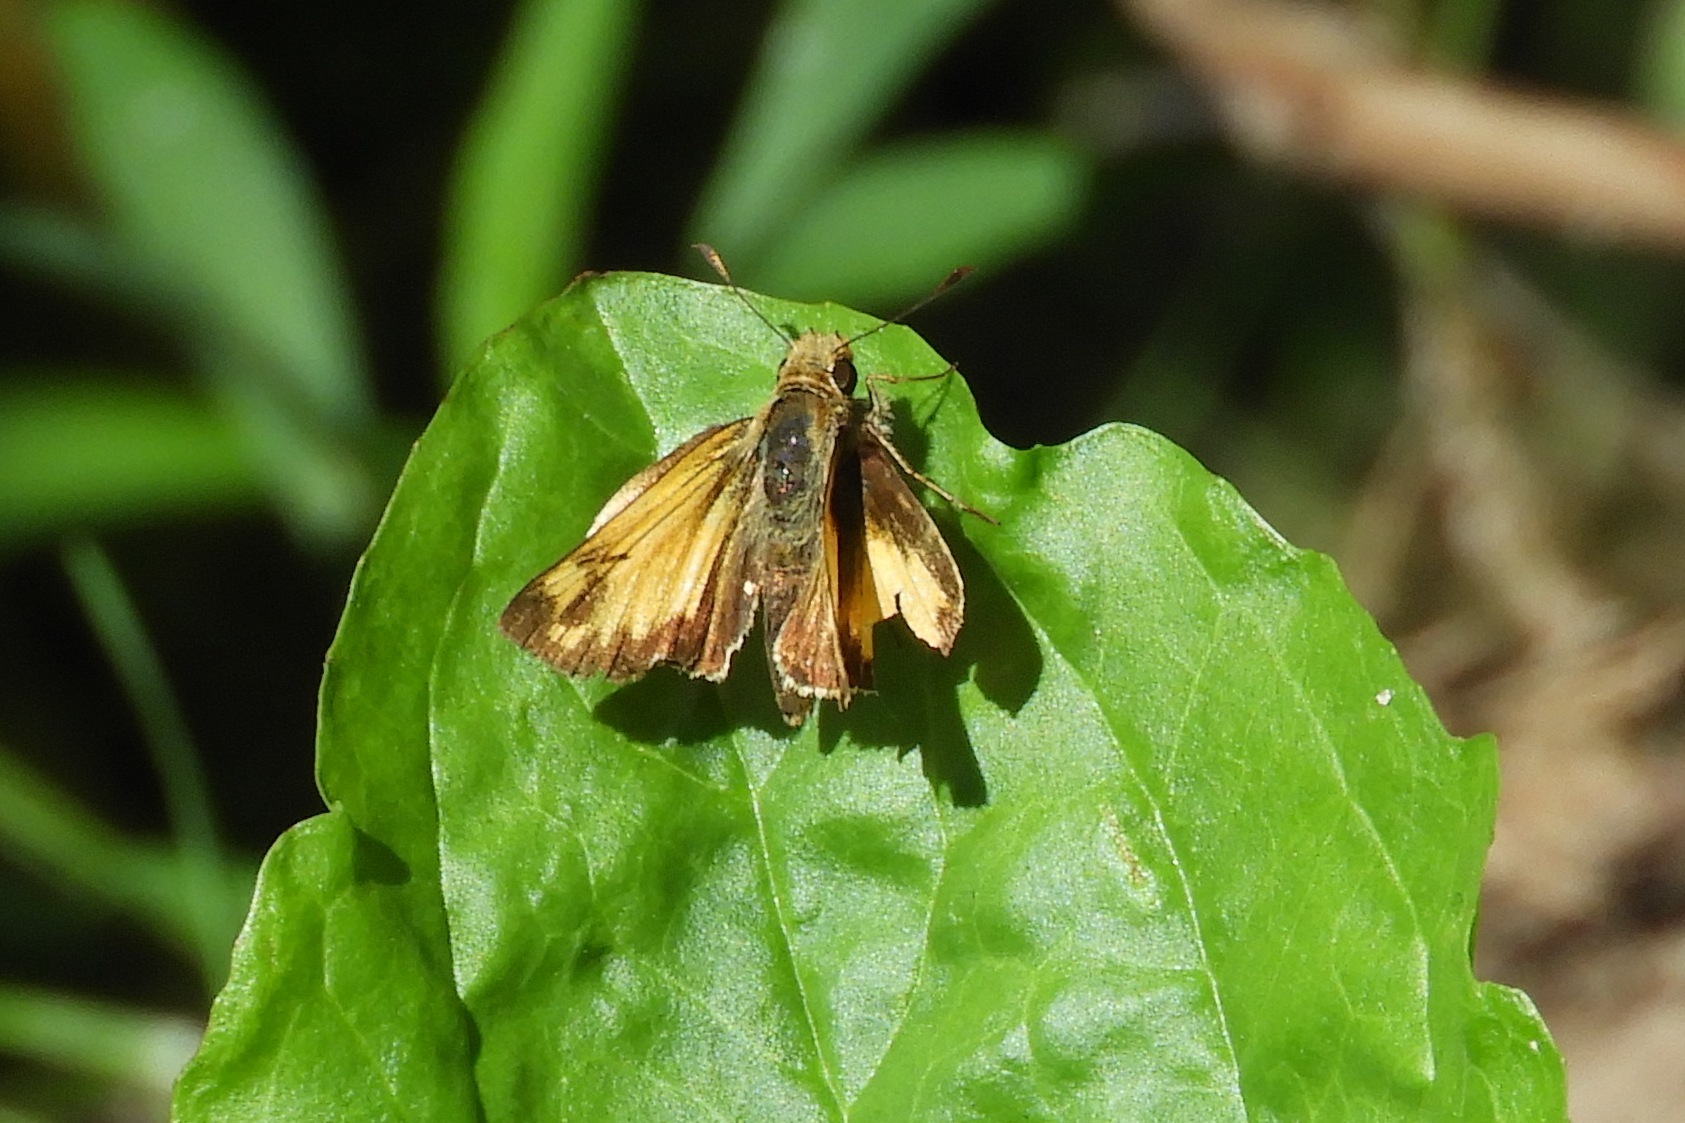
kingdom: Animalia
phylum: Arthropoda
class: Insecta
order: Lepidoptera
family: Hesperiidae
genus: Lon
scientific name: Lon zabulon
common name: Zabulon skipper
